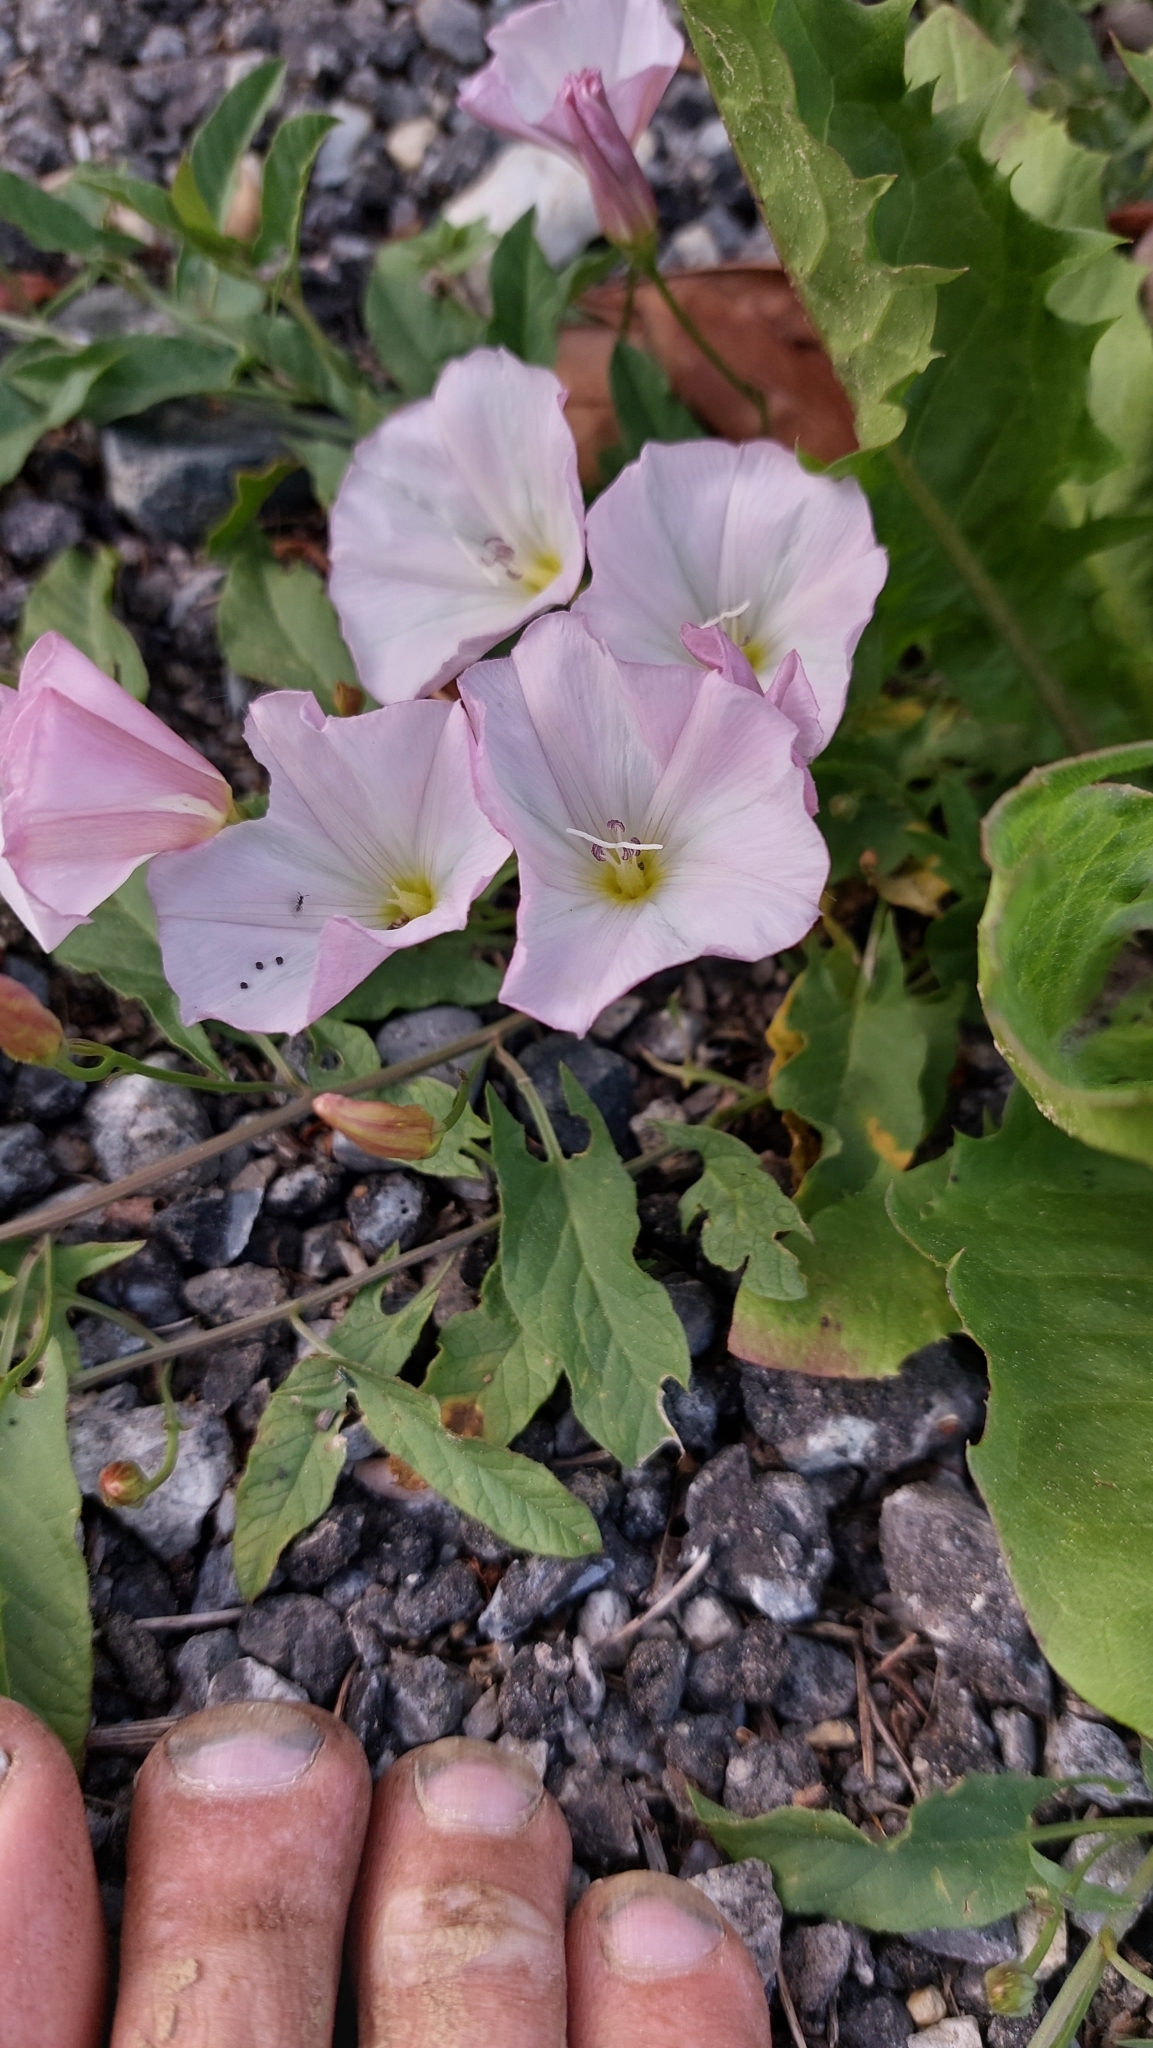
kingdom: Plantae
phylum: Tracheophyta
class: Magnoliopsida
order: Solanales
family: Convolvulaceae
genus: Convolvulus
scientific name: Convolvulus arvensis
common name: Field bindweed
